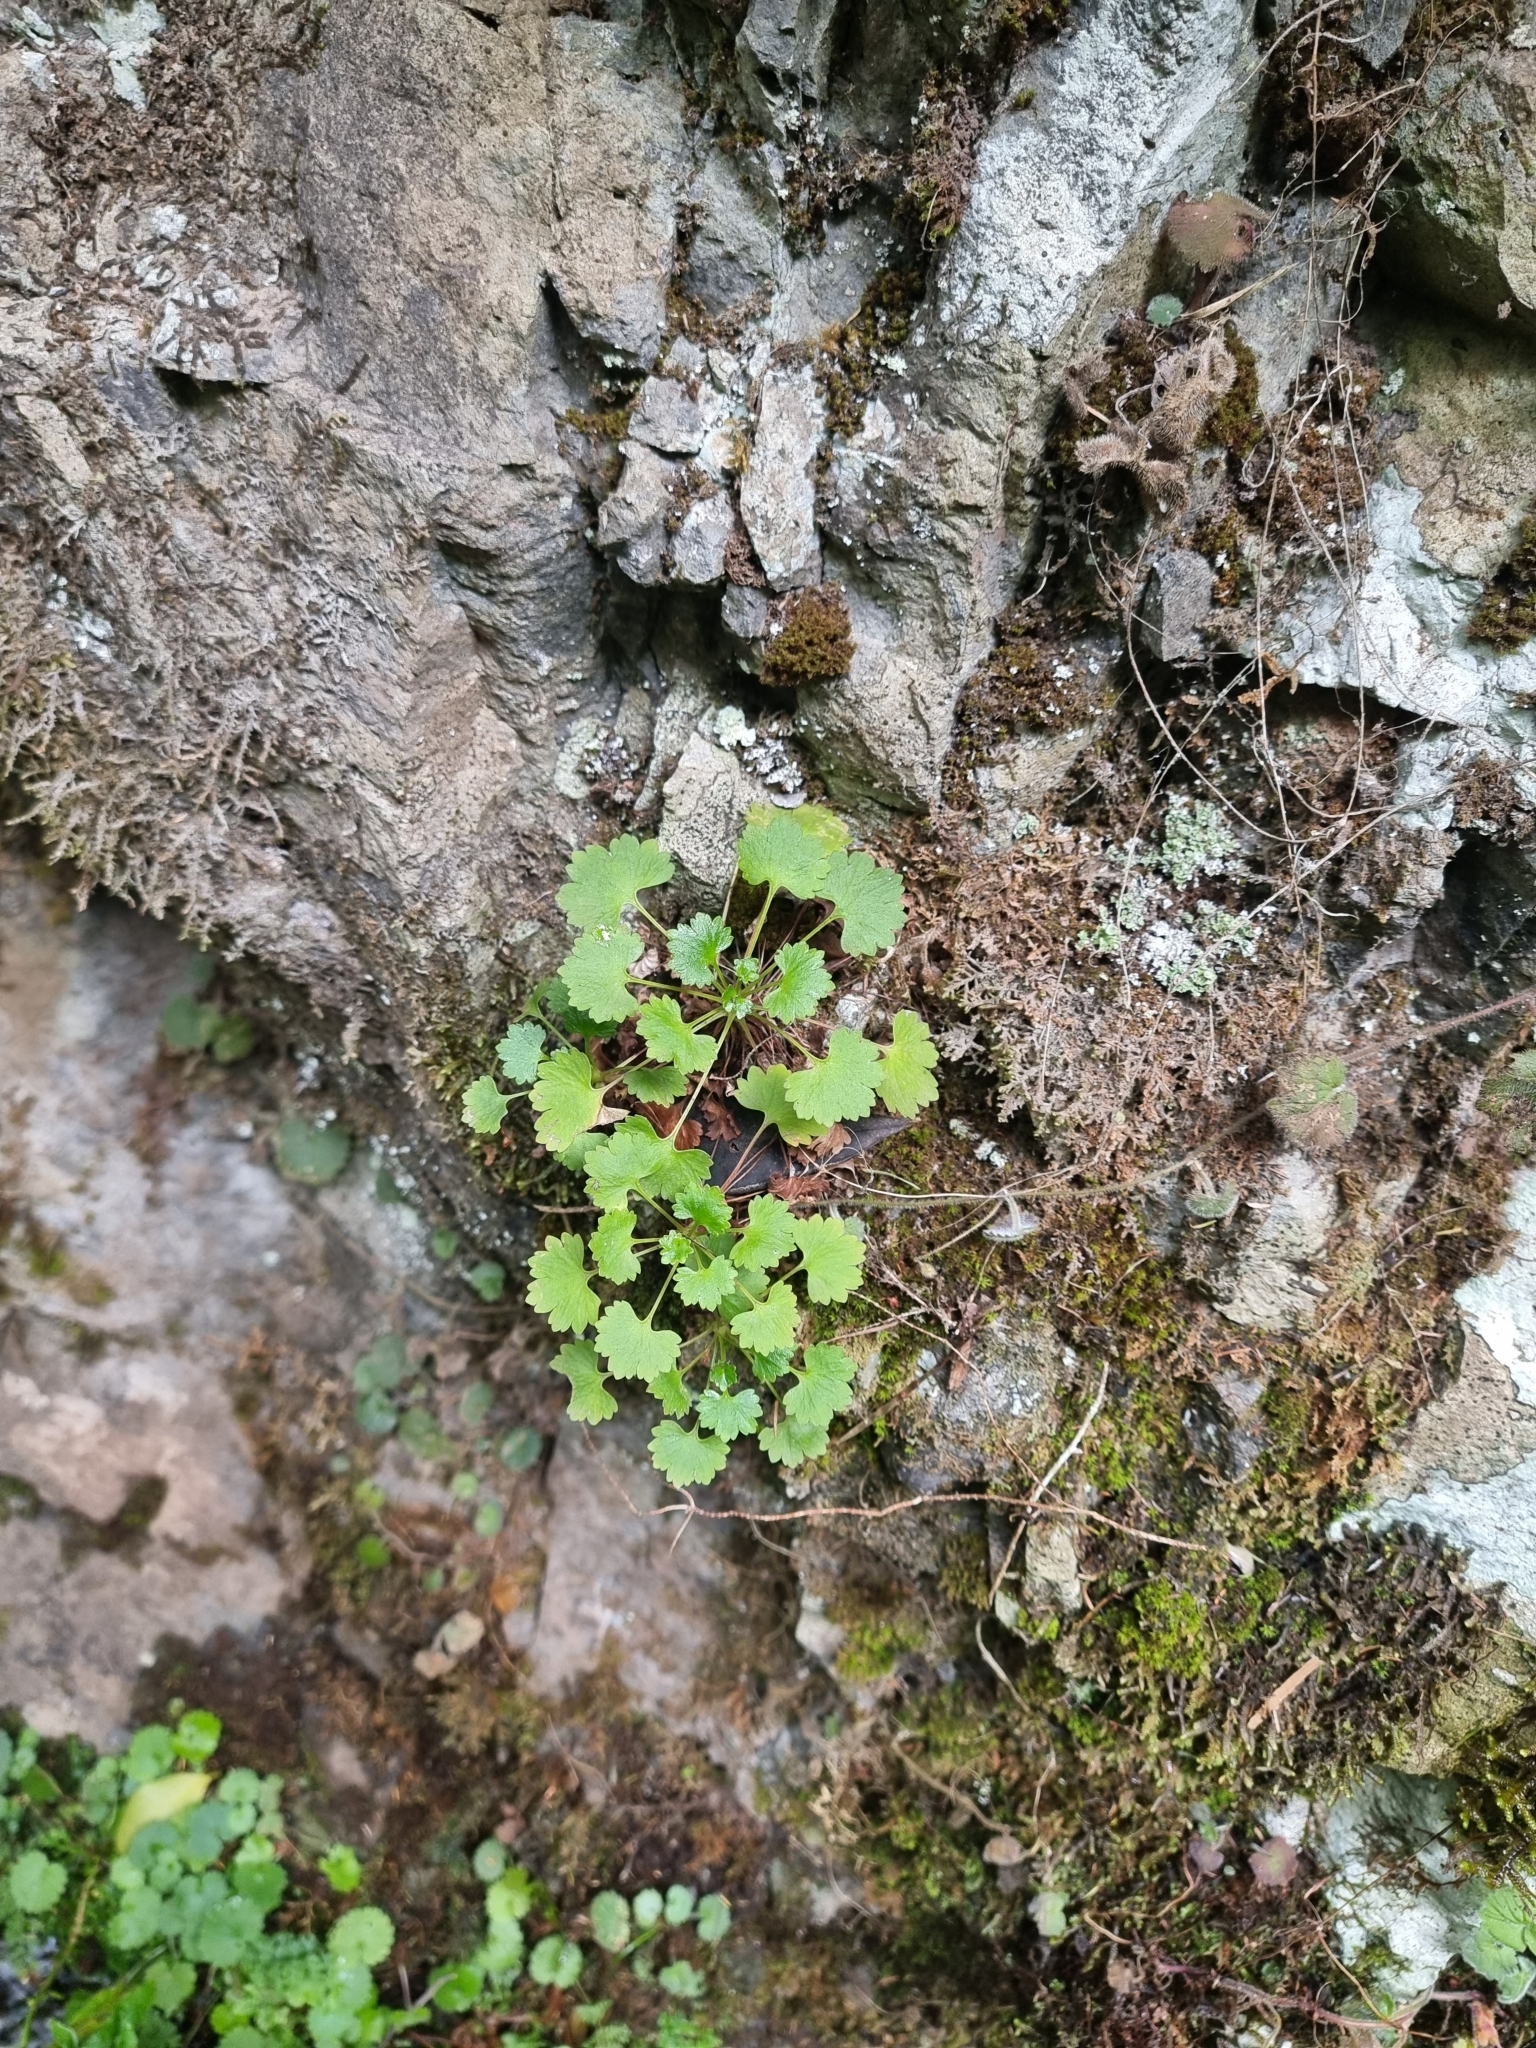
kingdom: Plantae
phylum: Tracheophyta
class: Magnoliopsida
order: Saxifragales
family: Saxifragaceae
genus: Saxifraga
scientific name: Saxifraga maderensis
